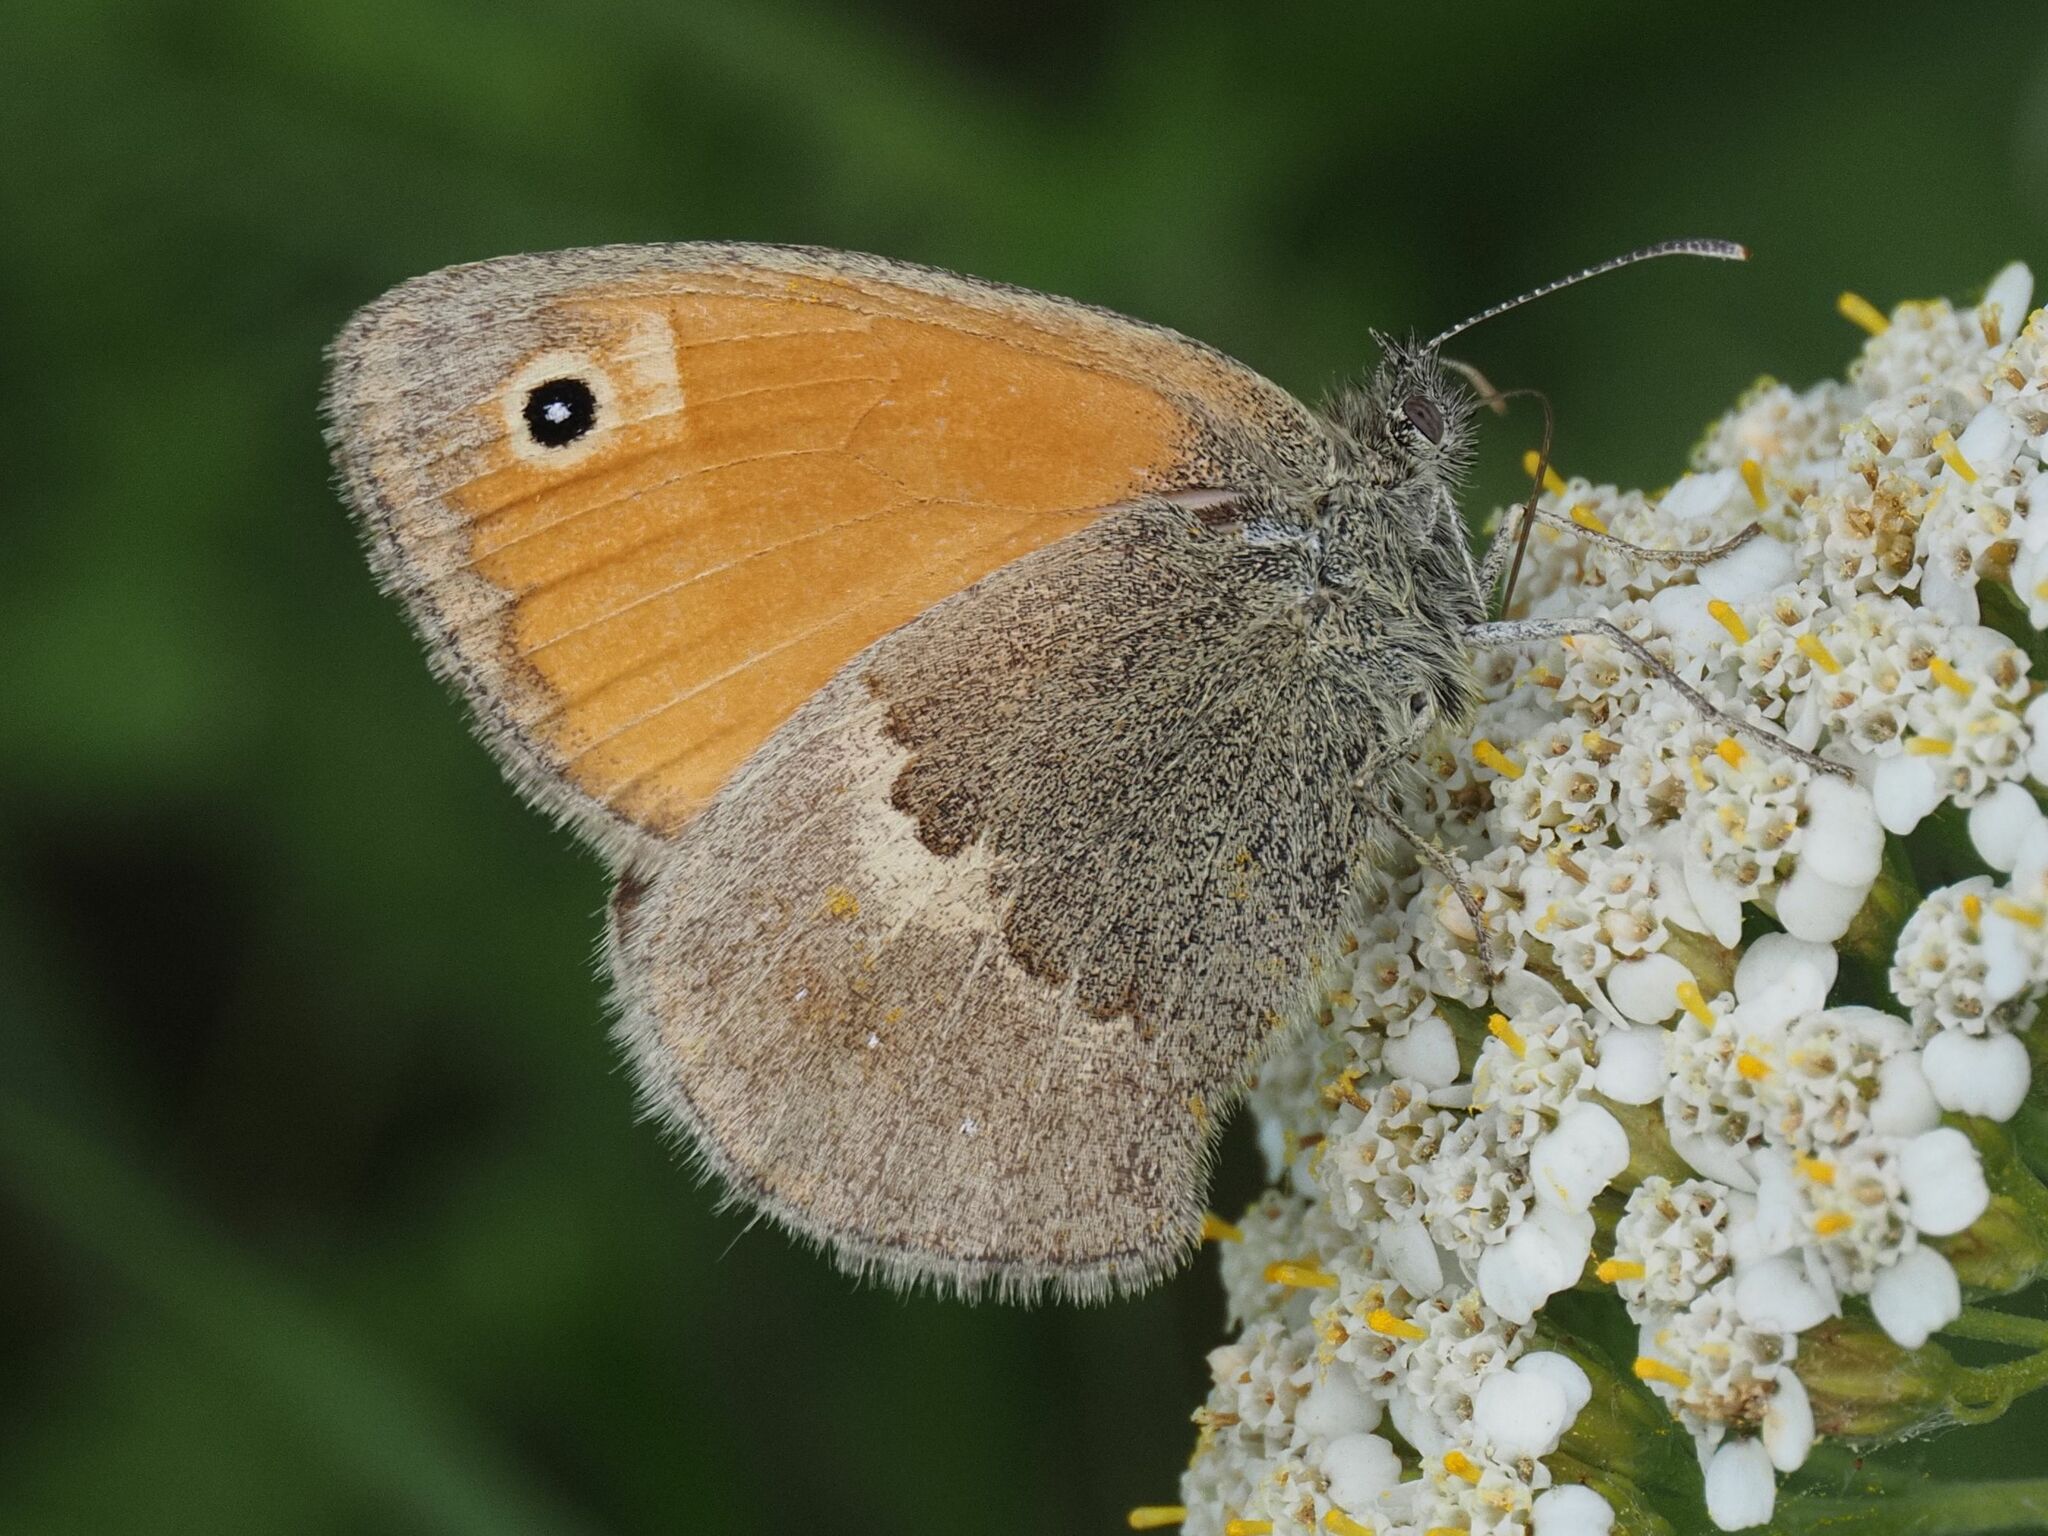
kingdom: Animalia
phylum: Arthropoda
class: Insecta
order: Lepidoptera
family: Nymphalidae
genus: Coenonympha
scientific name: Coenonympha pamphilus
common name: Small heath
